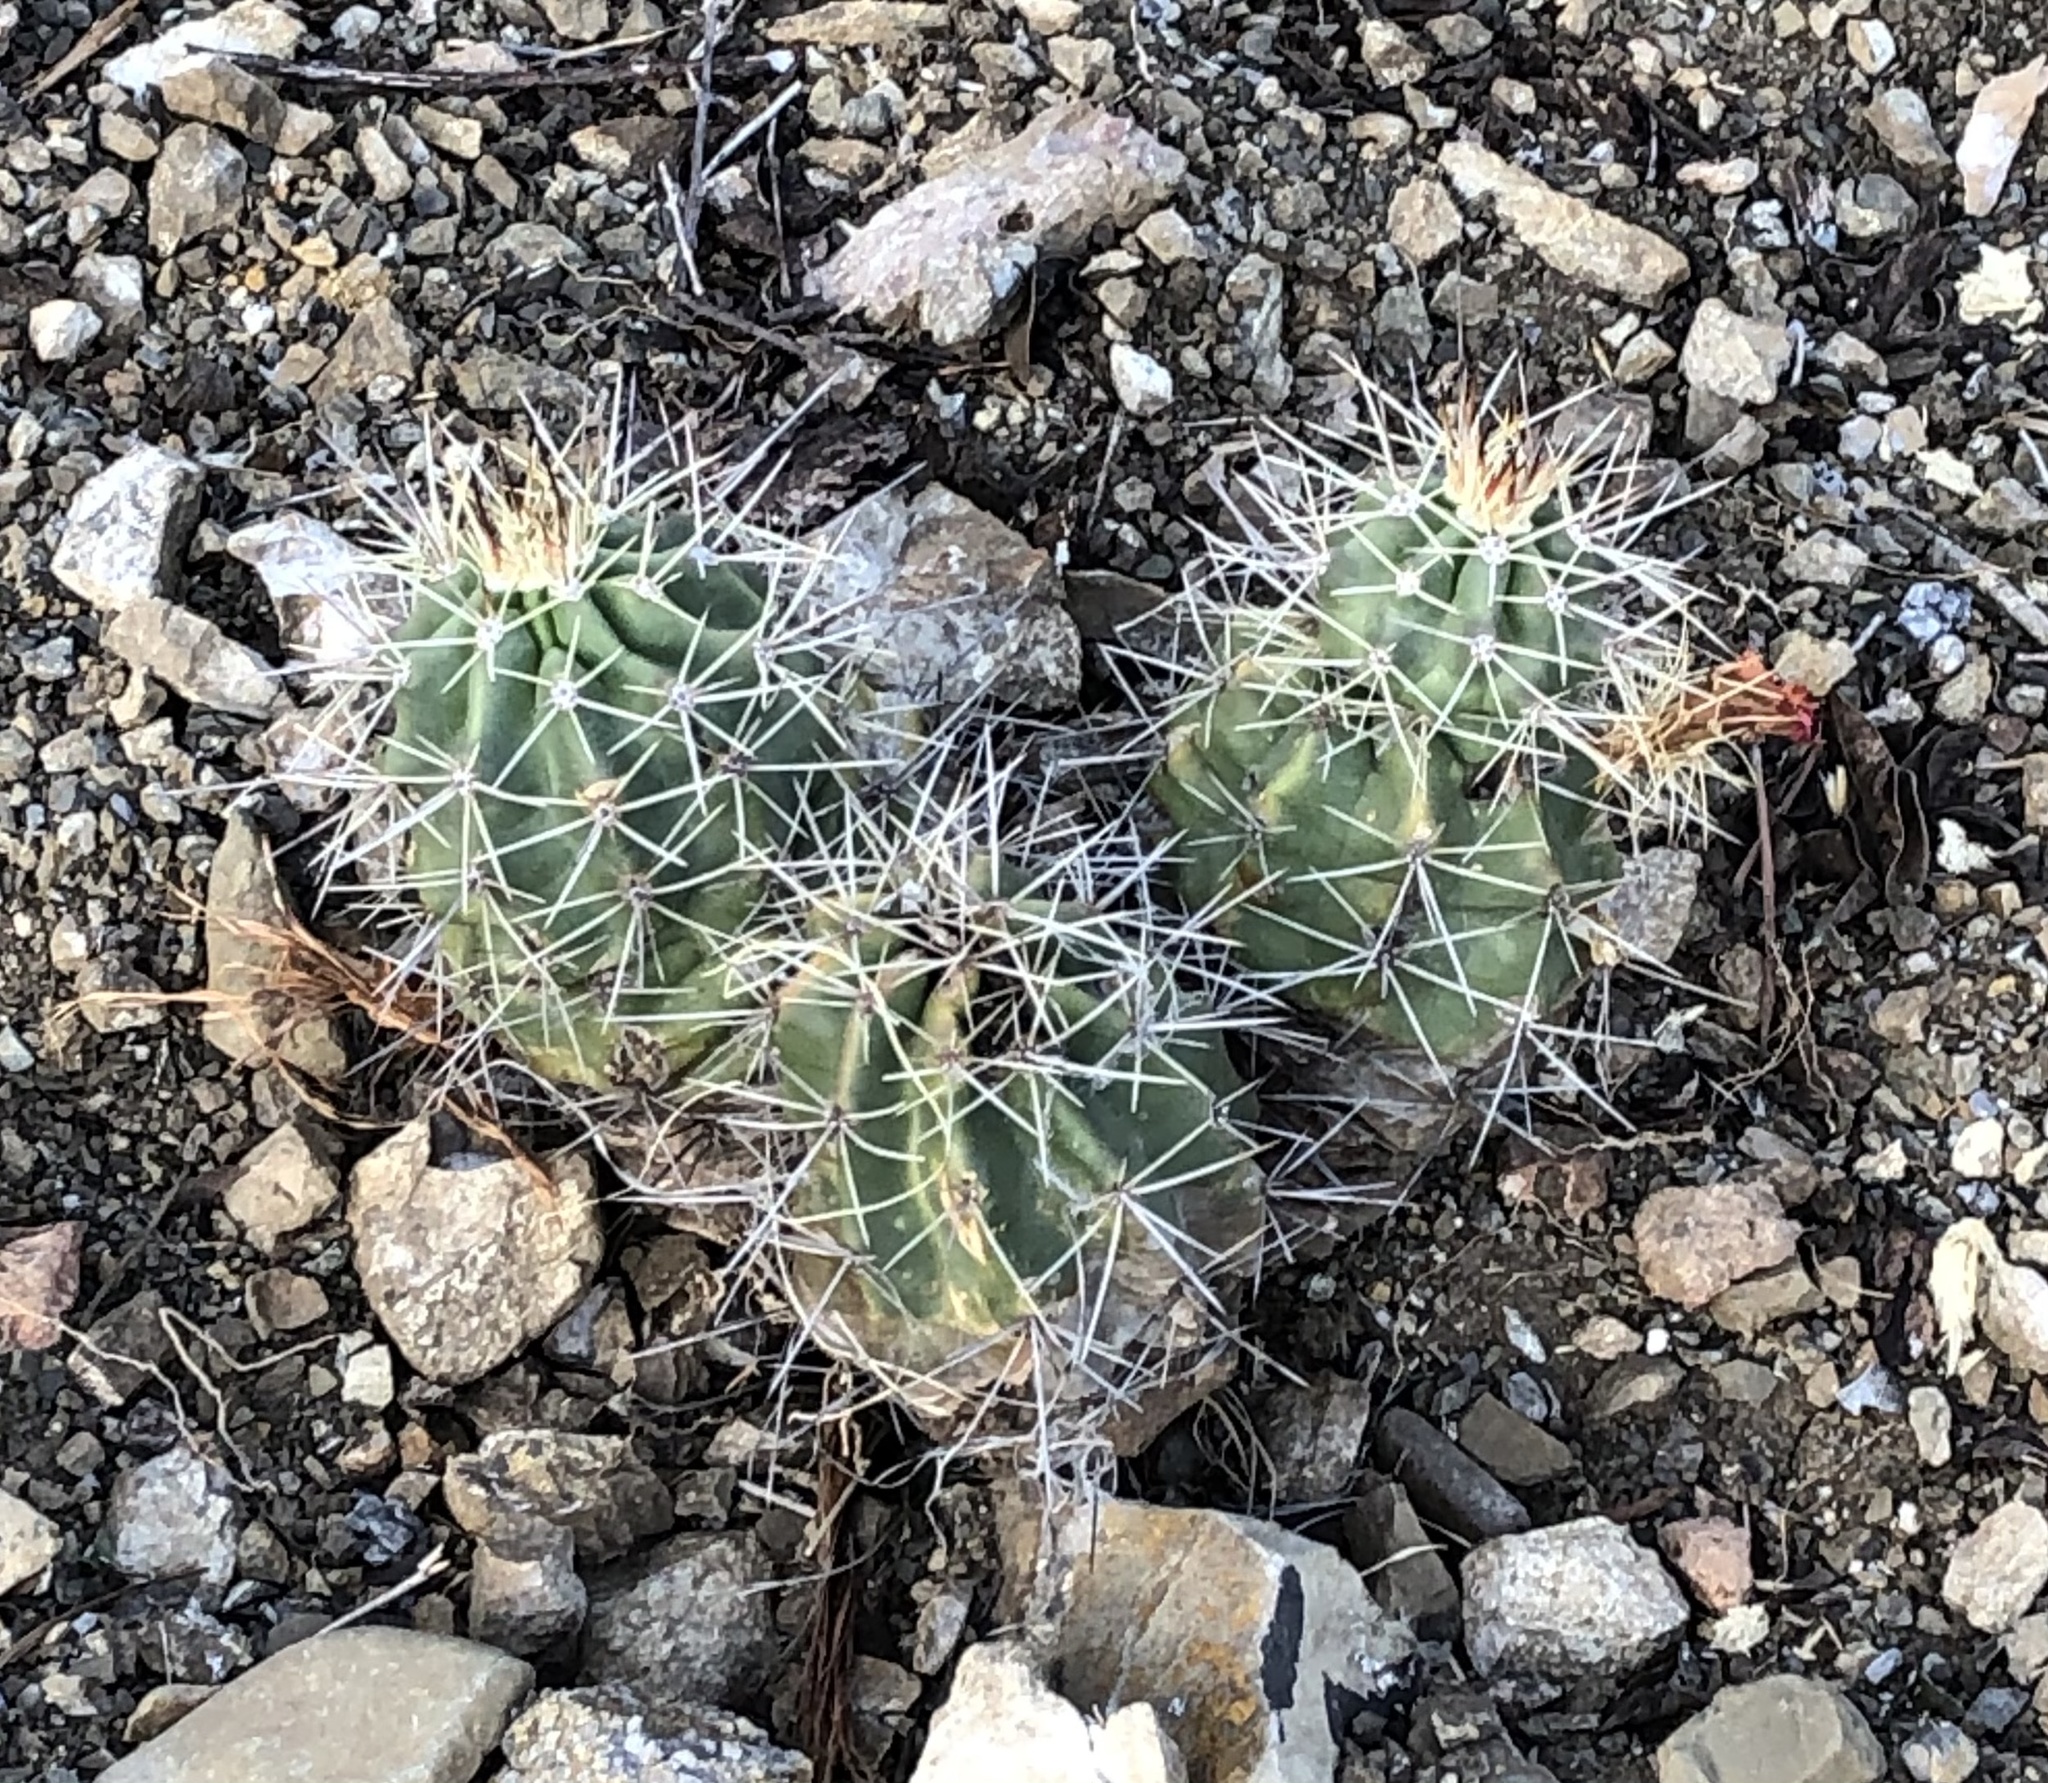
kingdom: Plantae
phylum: Tracheophyta
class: Magnoliopsida
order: Caryophyllales
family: Cactaceae
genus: Echinocereus
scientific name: Echinocereus coccineus
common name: Scarlet hedgehog cactus
